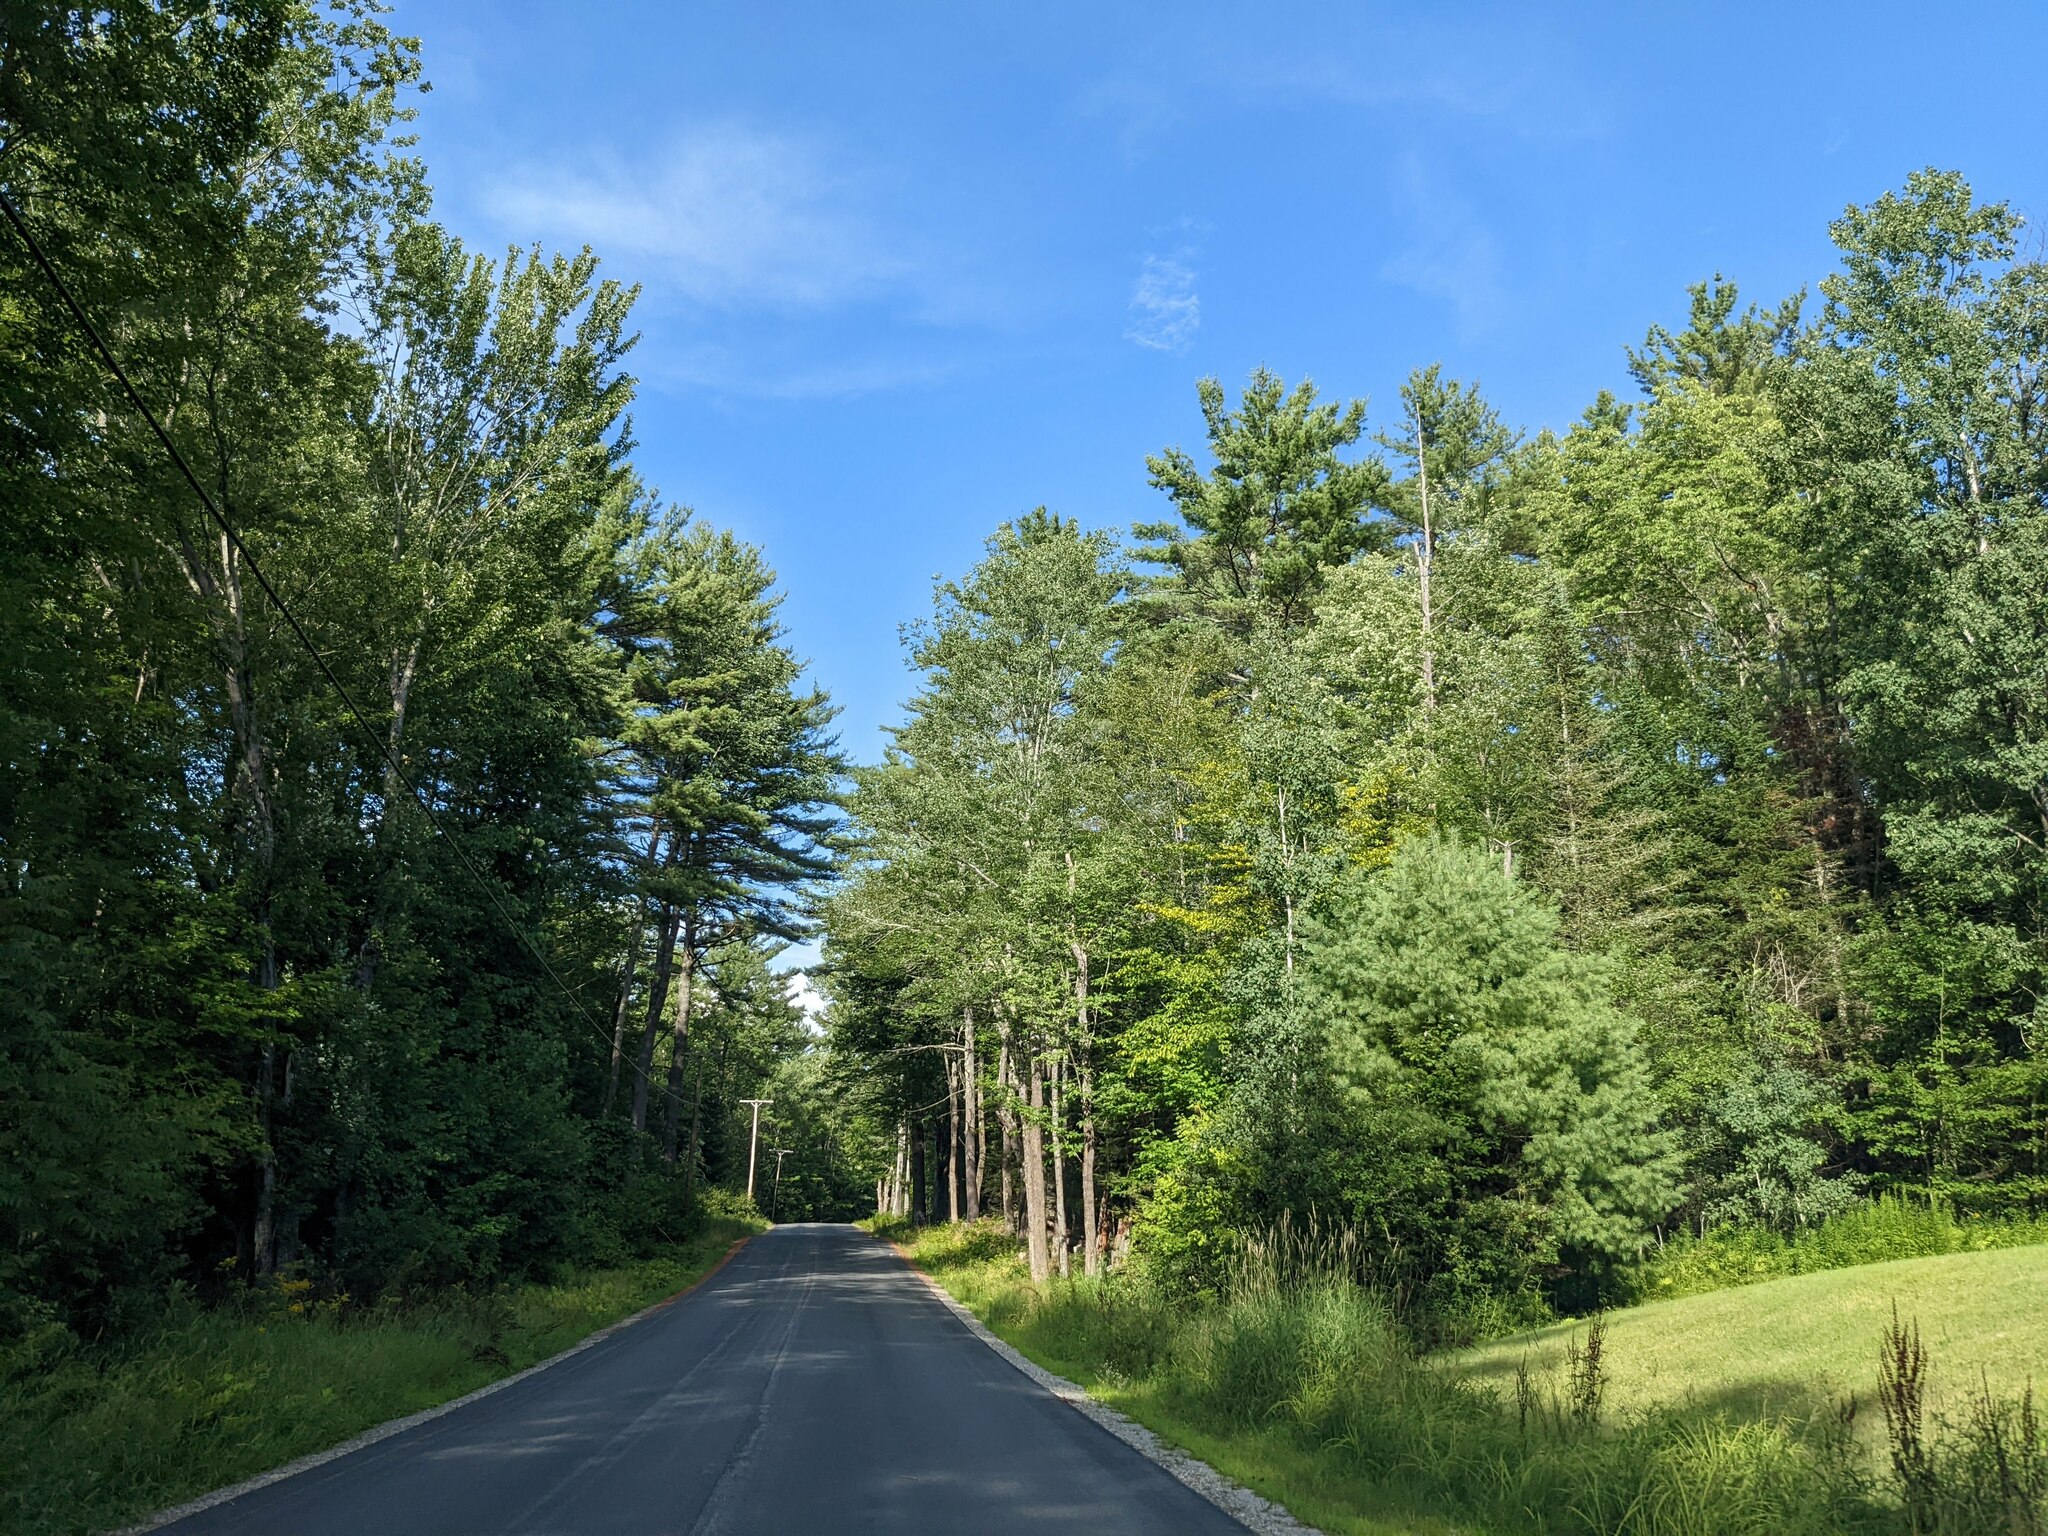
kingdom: Plantae
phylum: Tracheophyta
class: Pinopsida
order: Pinales
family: Pinaceae
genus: Pinus
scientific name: Pinus strobus
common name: Weymouth pine
